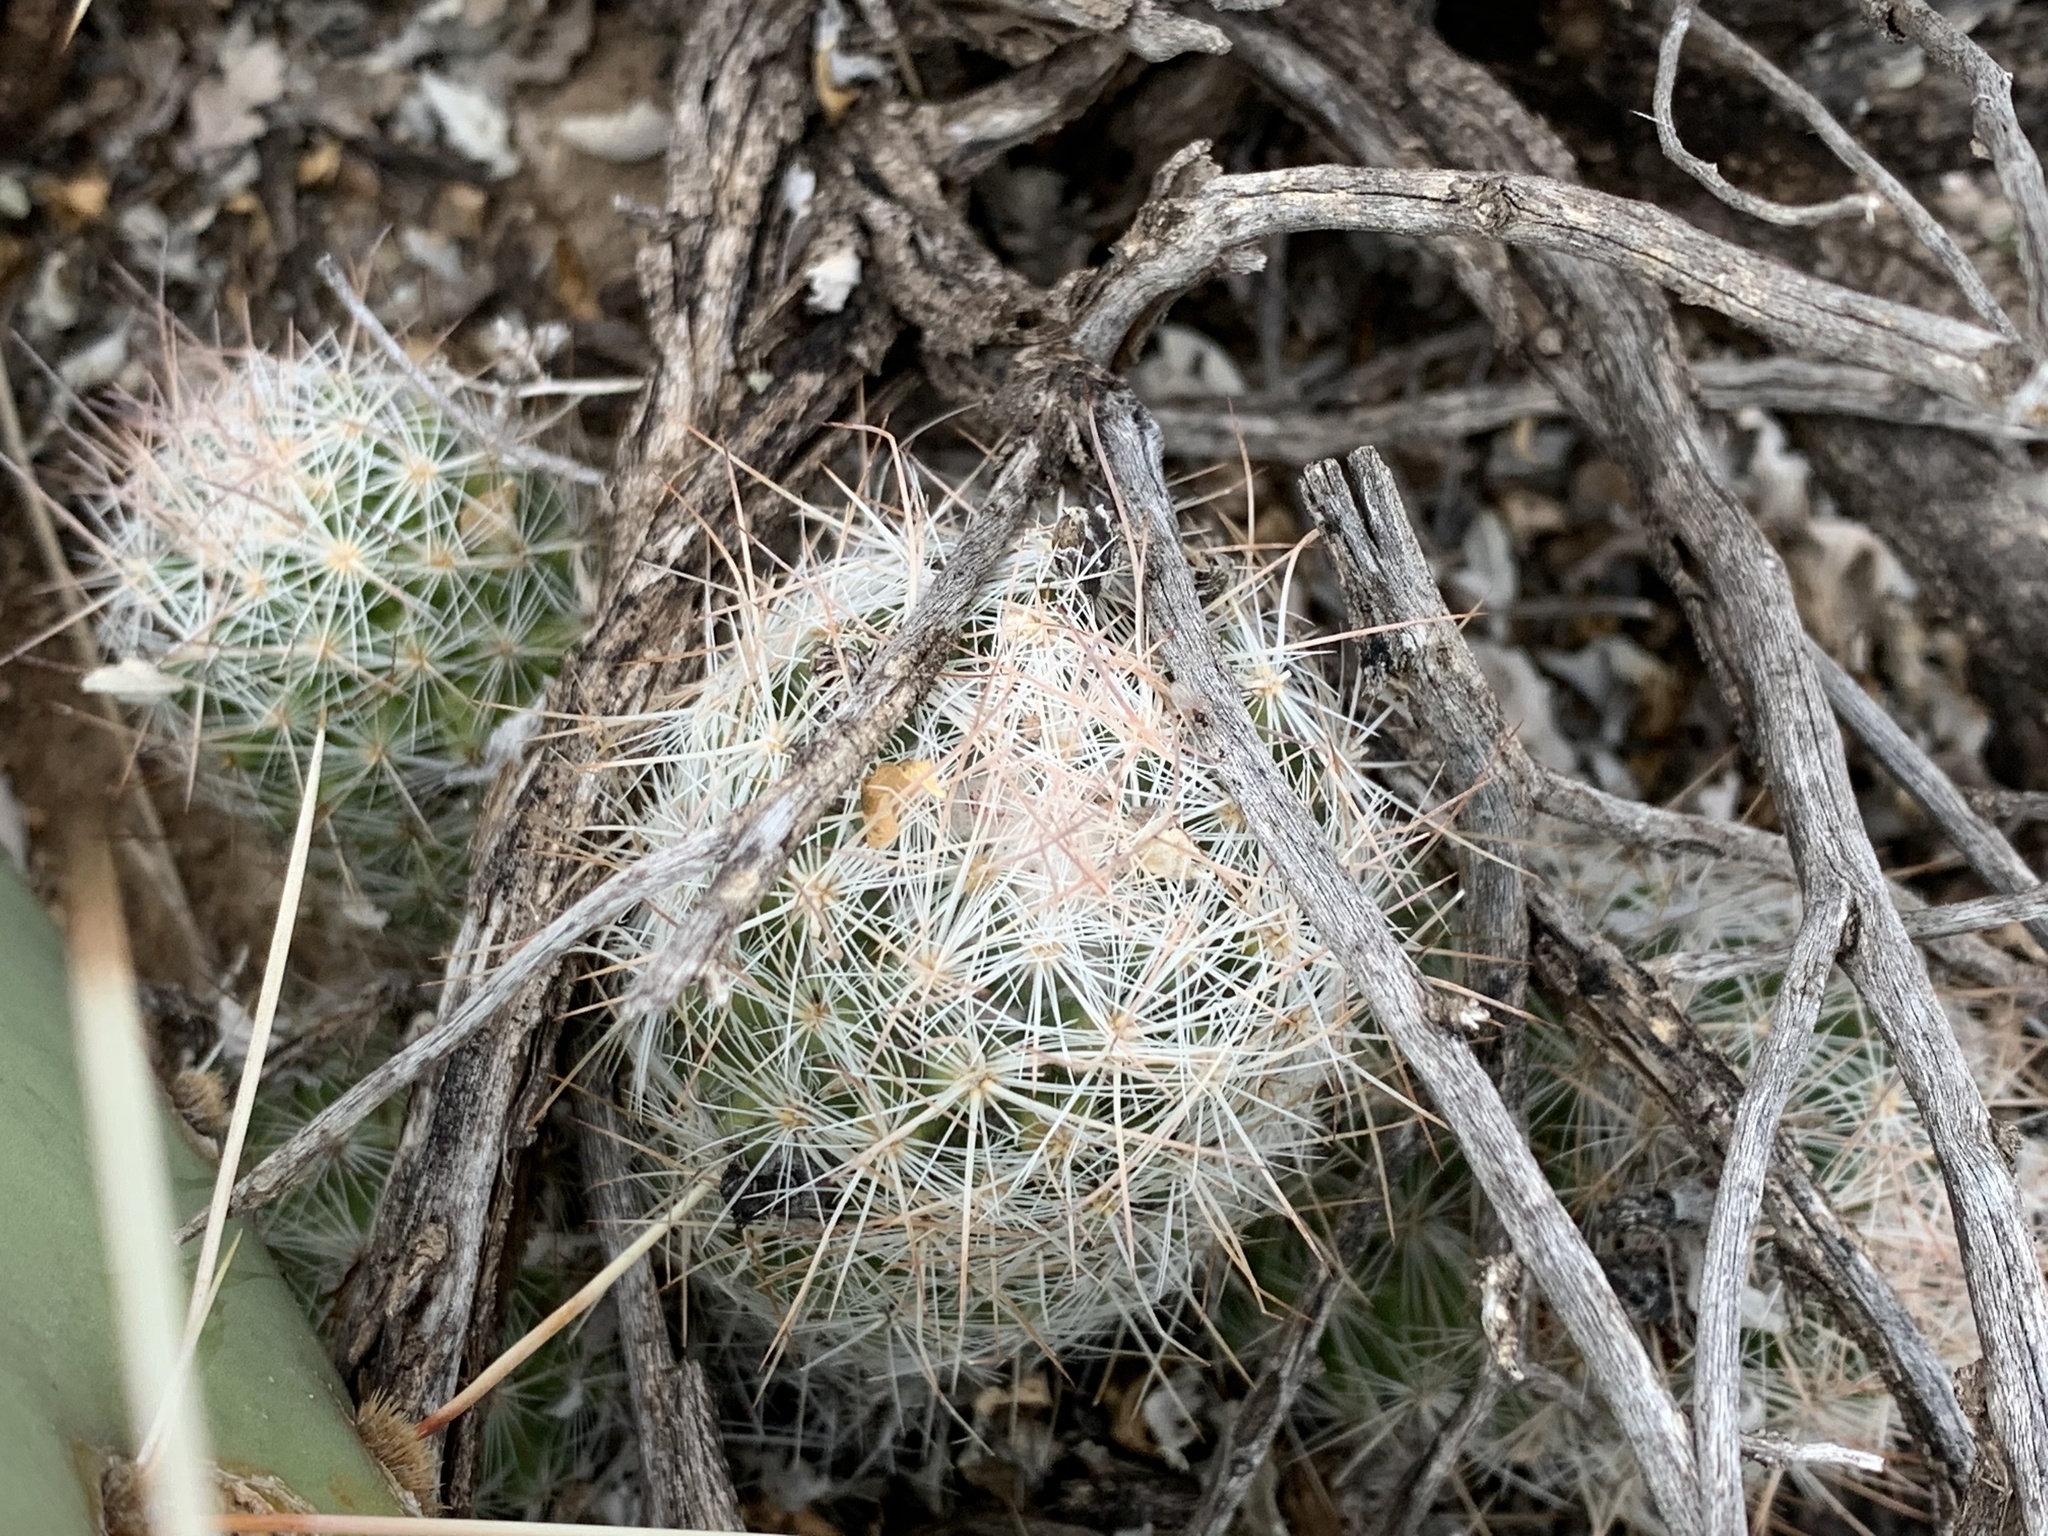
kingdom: Plantae
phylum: Tracheophyta
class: Magnoliopsida
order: Caryophyllales
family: Cactaceae
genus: Pelecyphora
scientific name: Pelecyphora tuberculosa
